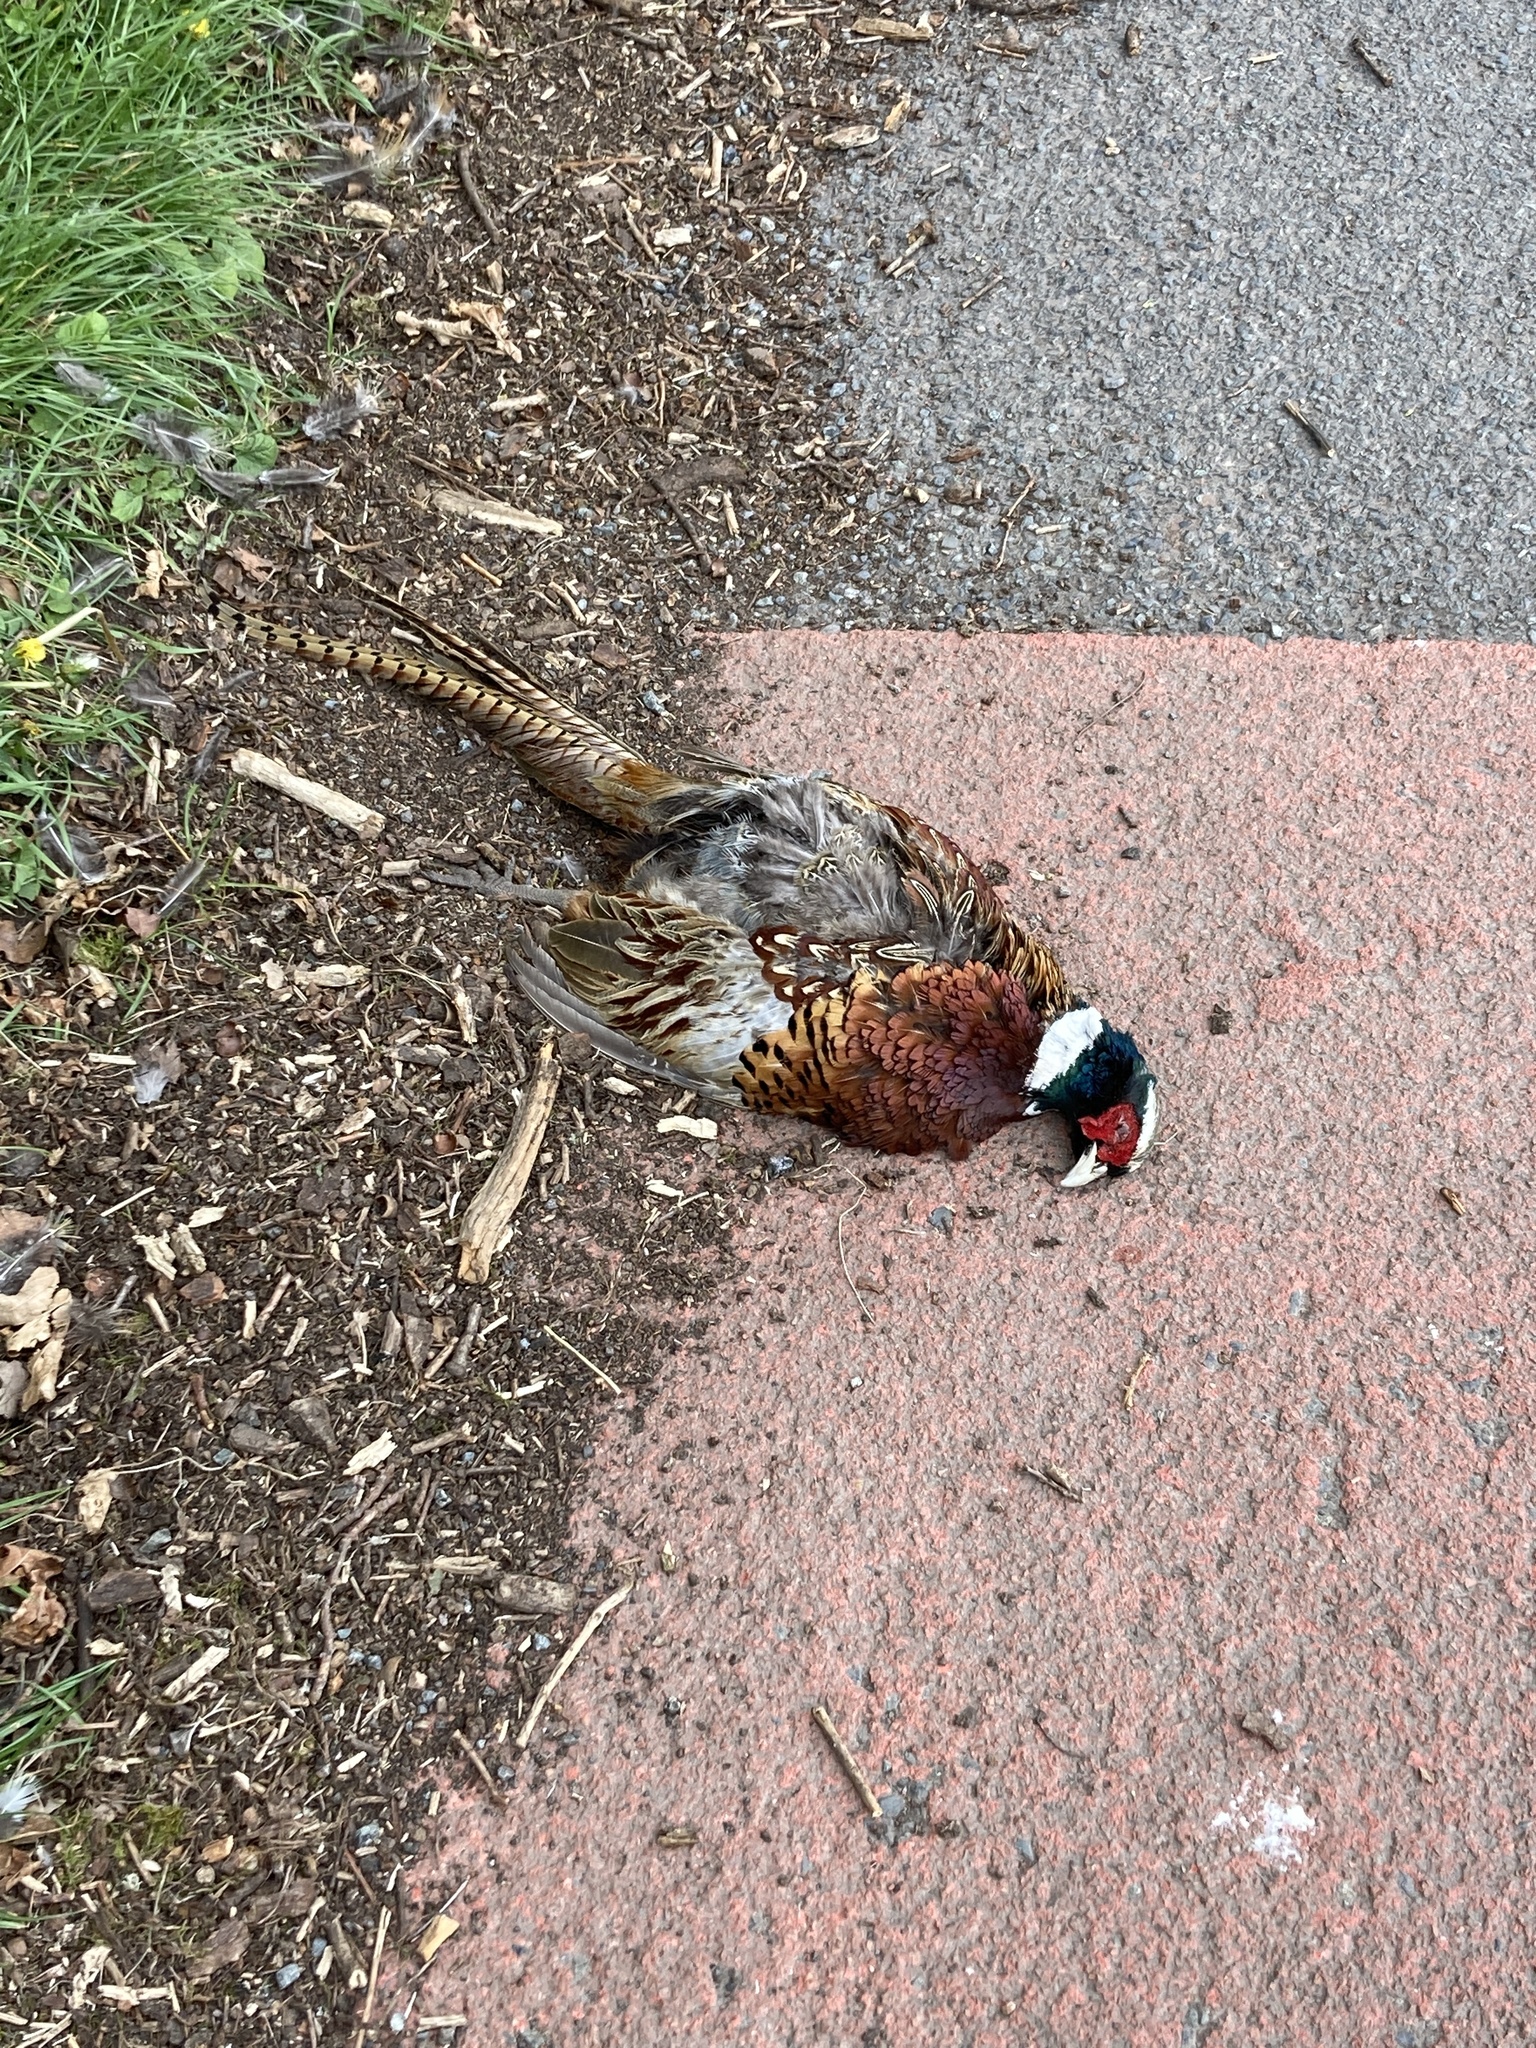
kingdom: Animalia
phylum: Chordata
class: Aves
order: Galliformes
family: Phasianidae
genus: Phasianus
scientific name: Phasianus colchicus
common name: Common pheasant
